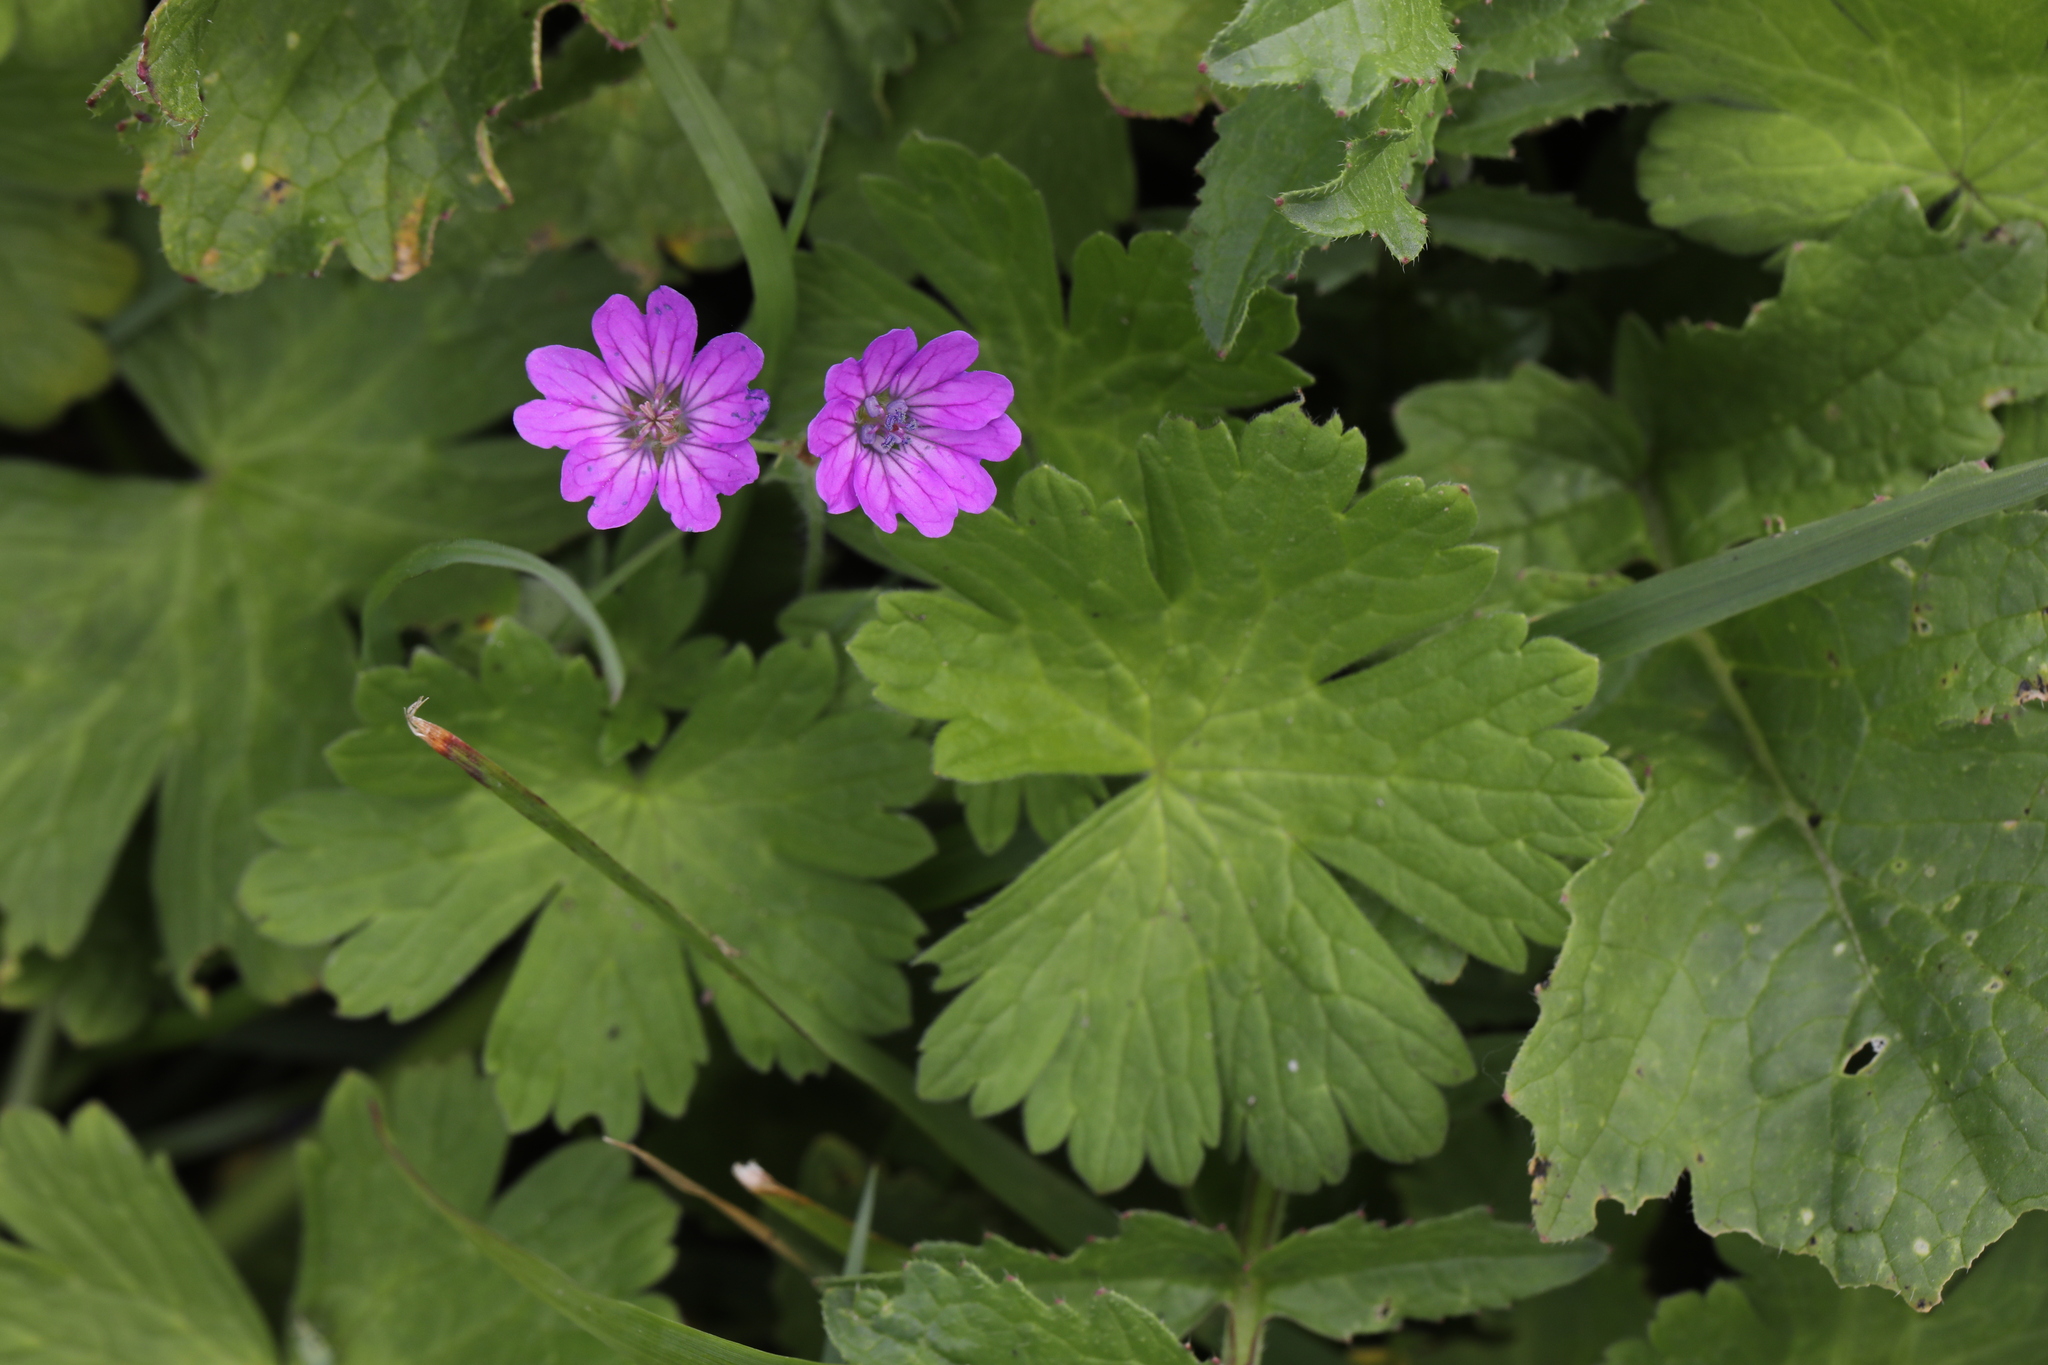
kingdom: Plantae
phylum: Tracheophyta
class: Magnoliopsida
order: Geraniales
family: Geraniaceae
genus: Geranium
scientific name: Geranium pyrenaicum
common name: Hedgerow crane's-bill
